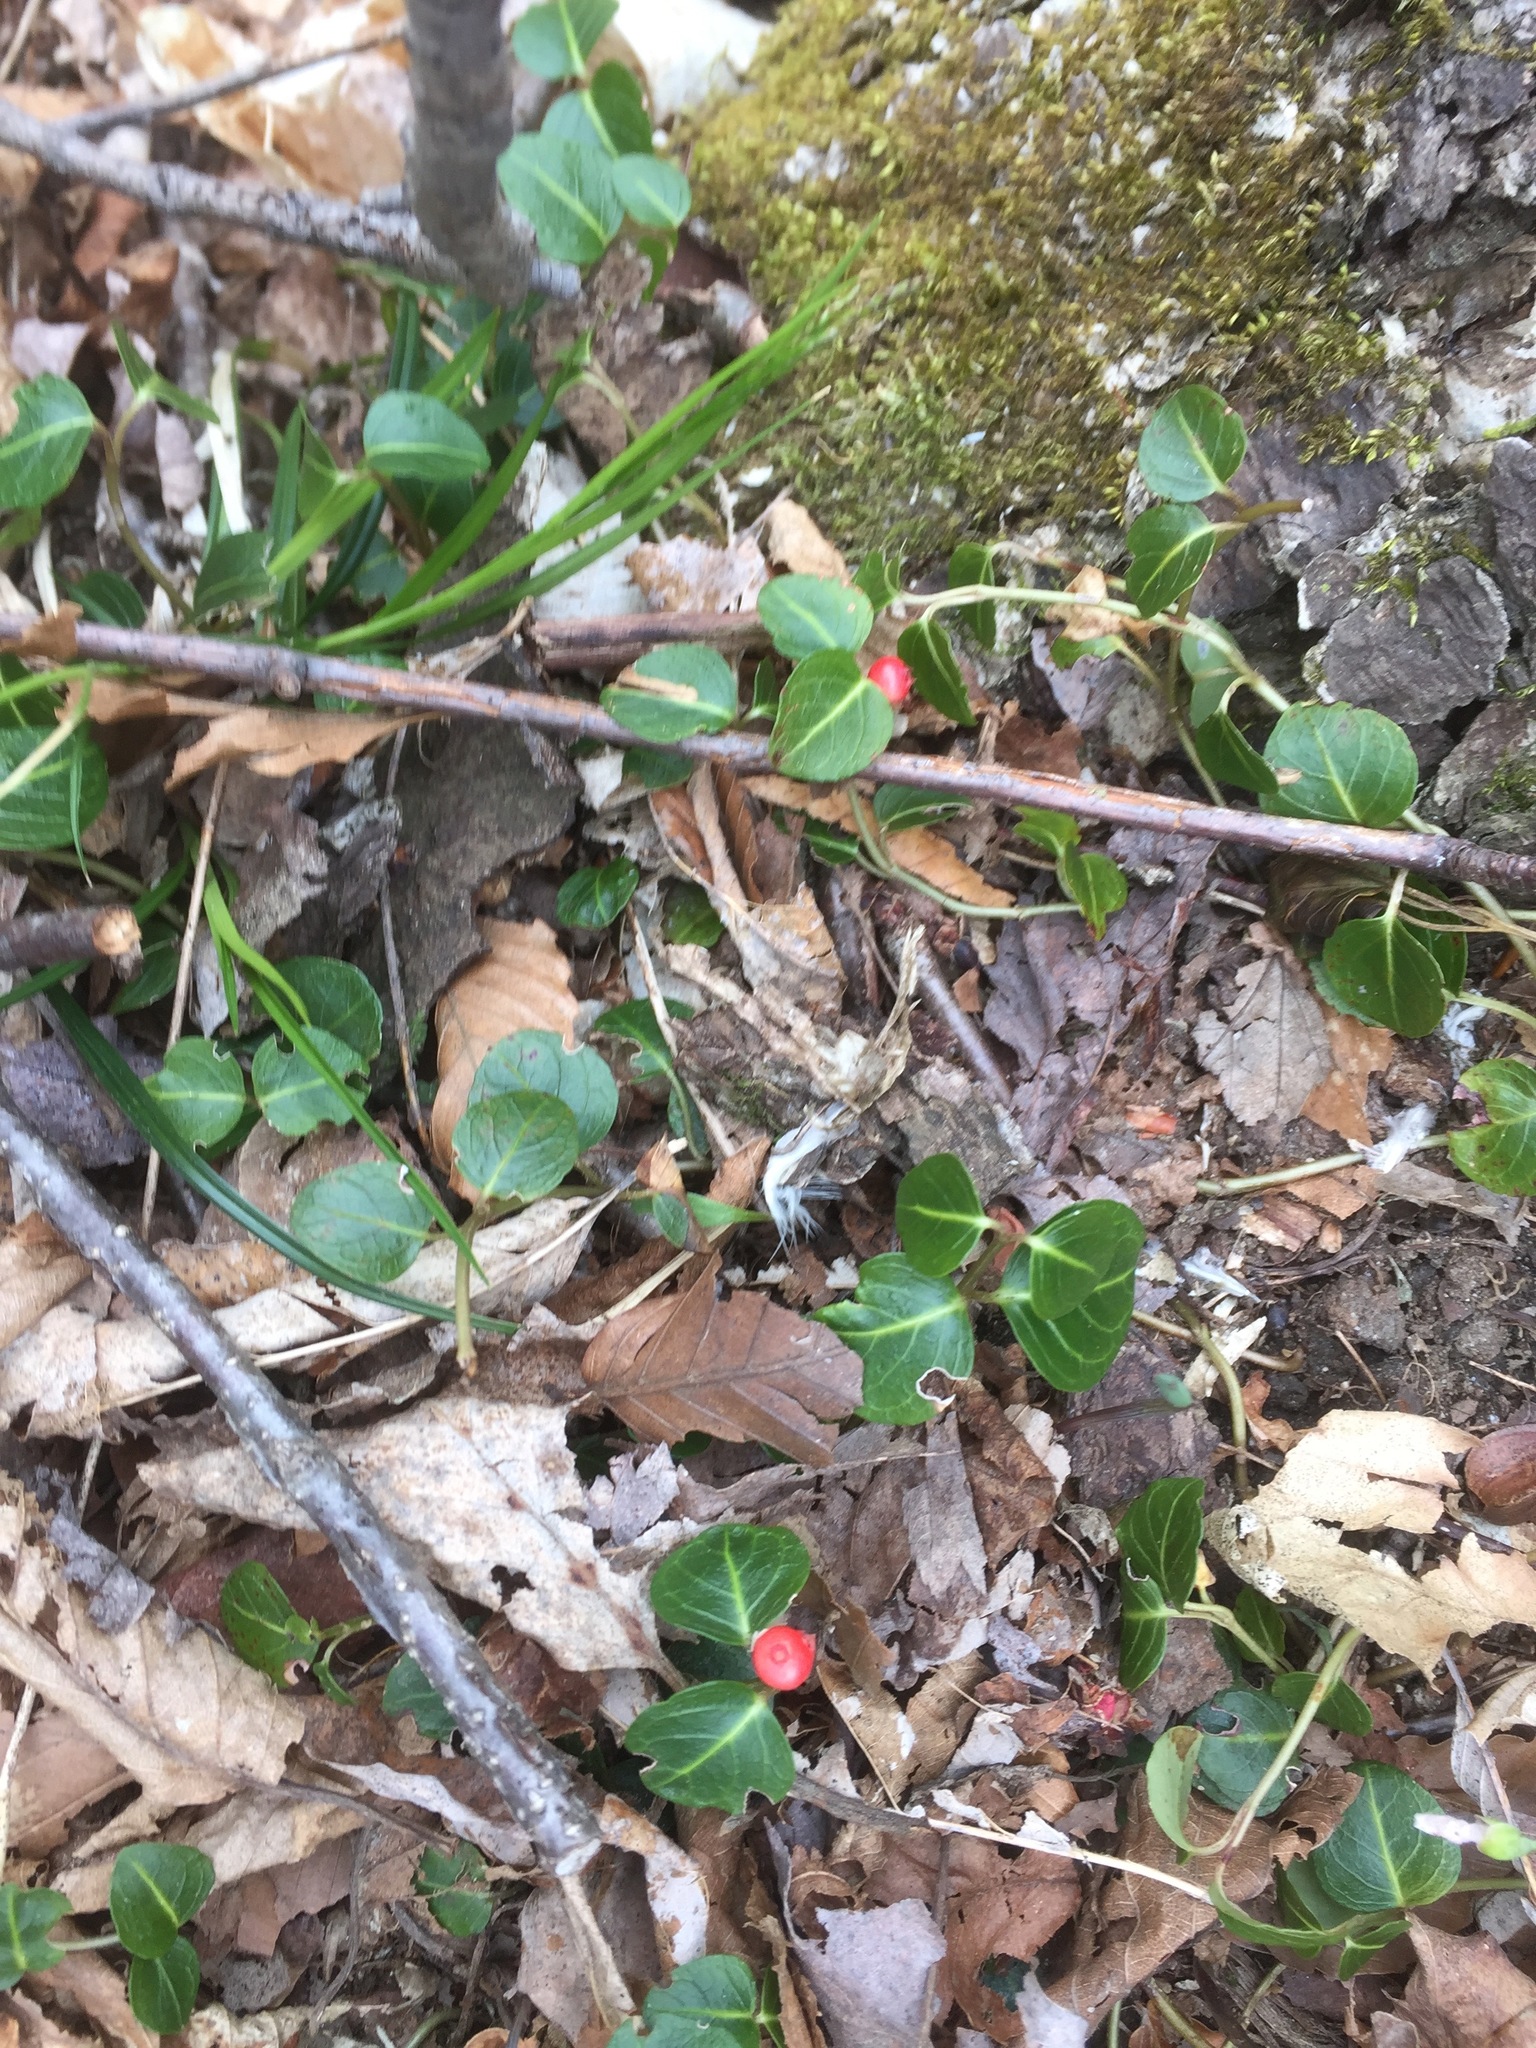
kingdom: Plantae
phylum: Tracheophyta
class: Magnoliopsida
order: Gentianales
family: Rubiaceae
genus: Mitchella
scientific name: Mitchella repens
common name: Partridge-berry
